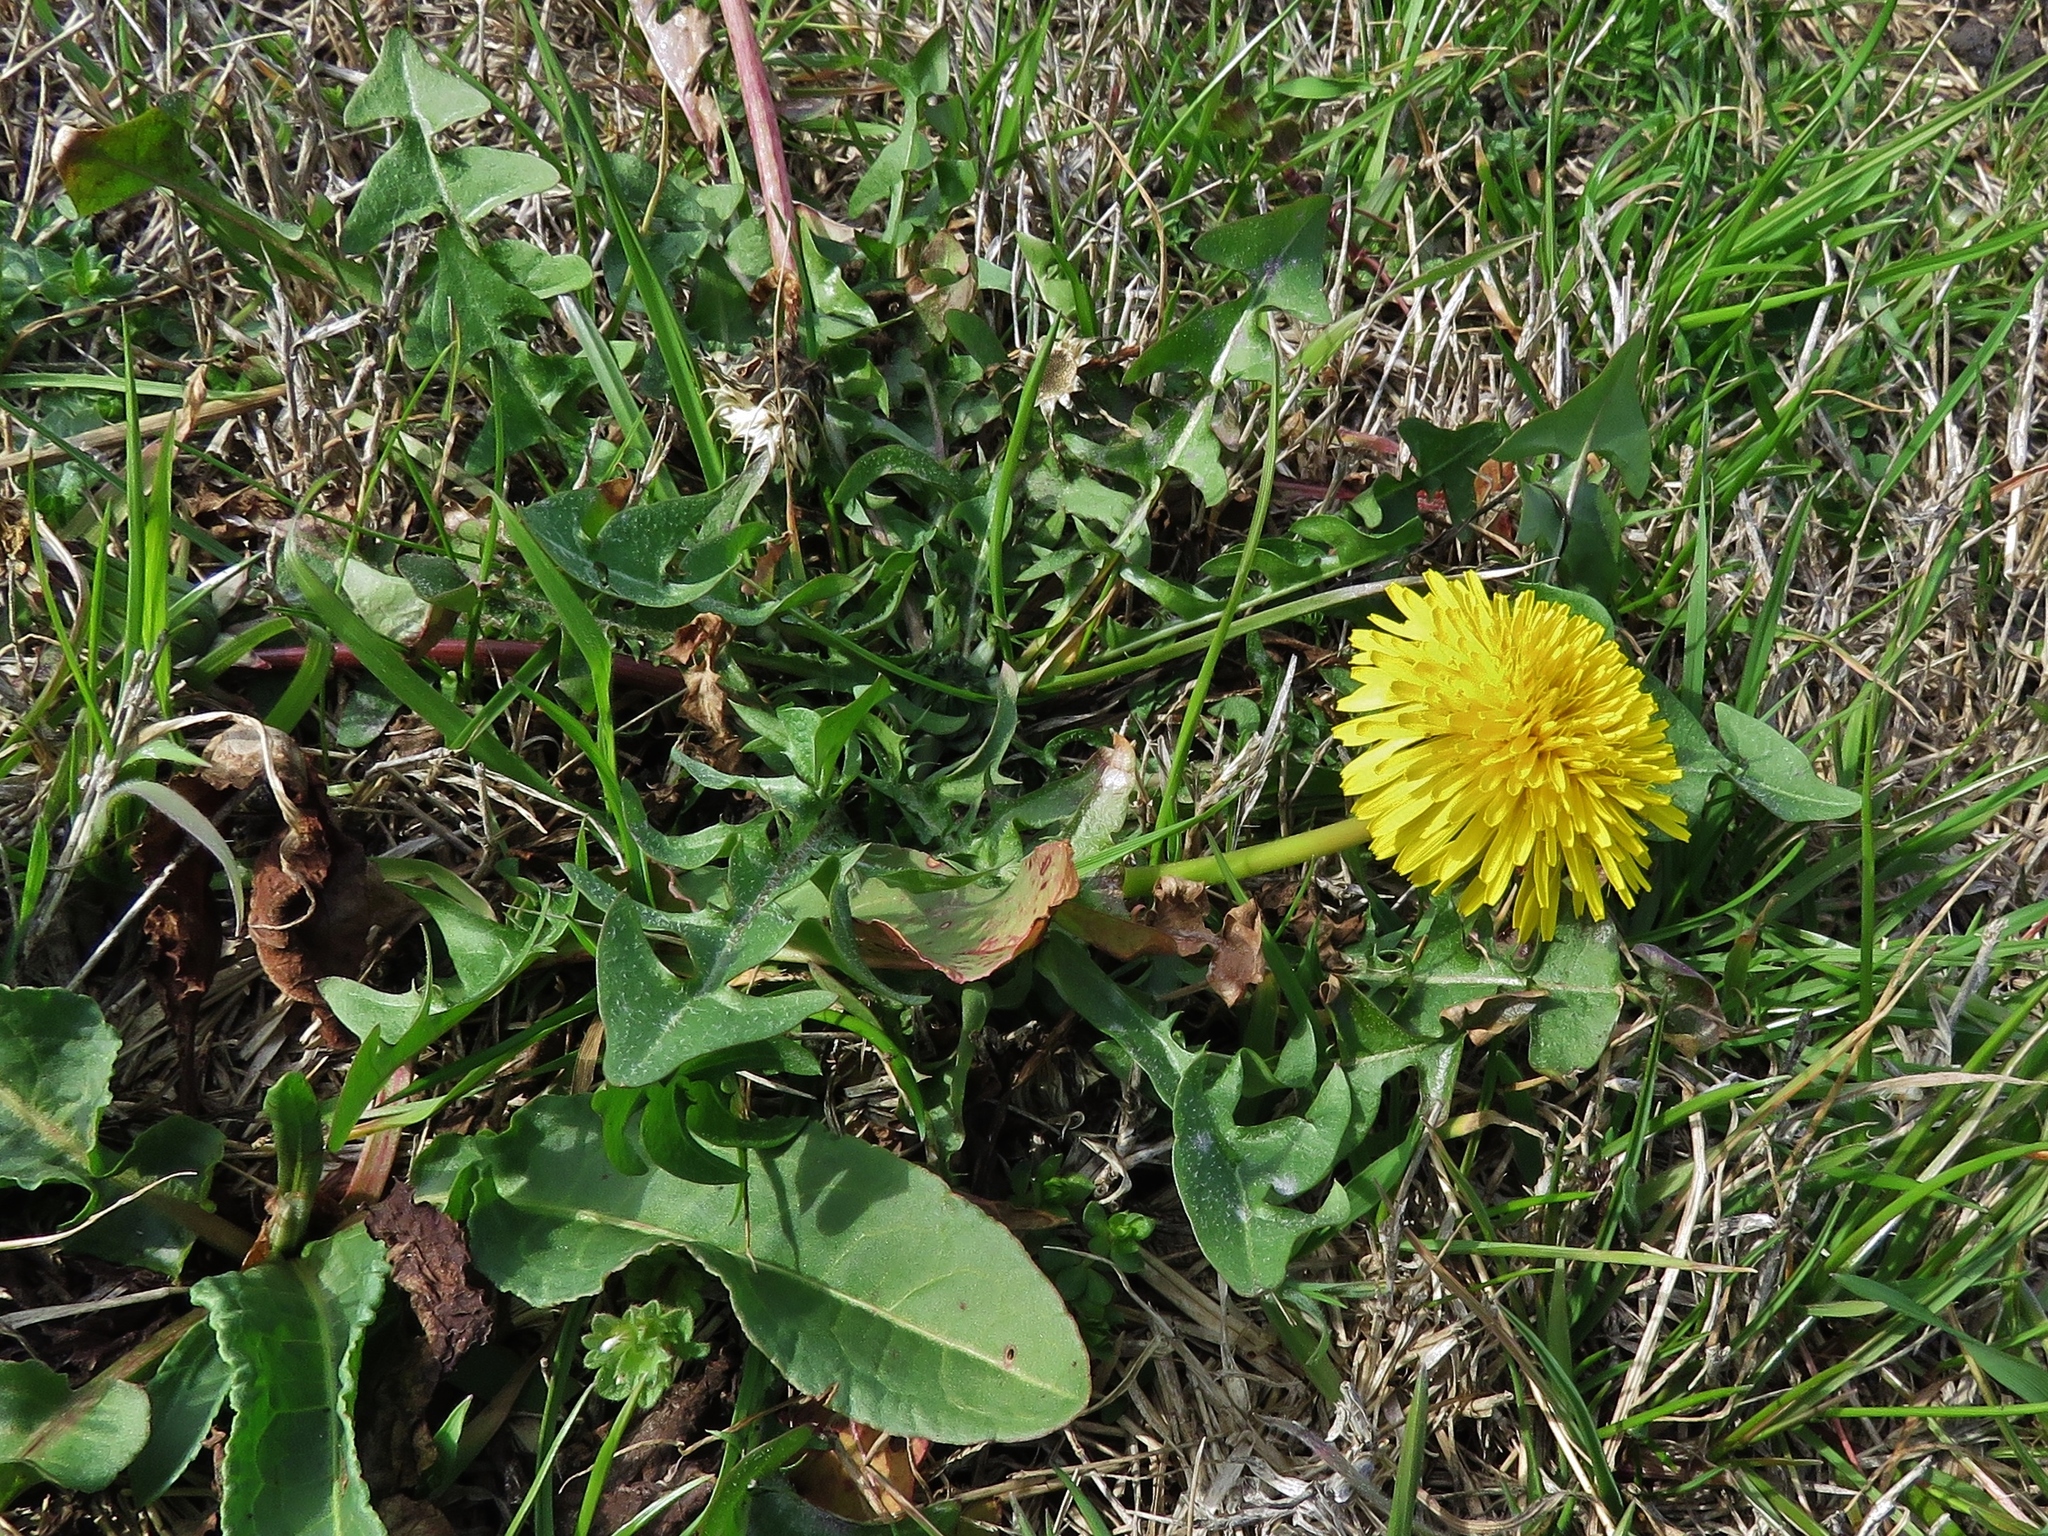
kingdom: Plantae
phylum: Tracheophyta
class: Magnoliopsida
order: Asterales
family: Asteraceae
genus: Taraxacum
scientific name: Taraxacum officinale
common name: Common dandelion
